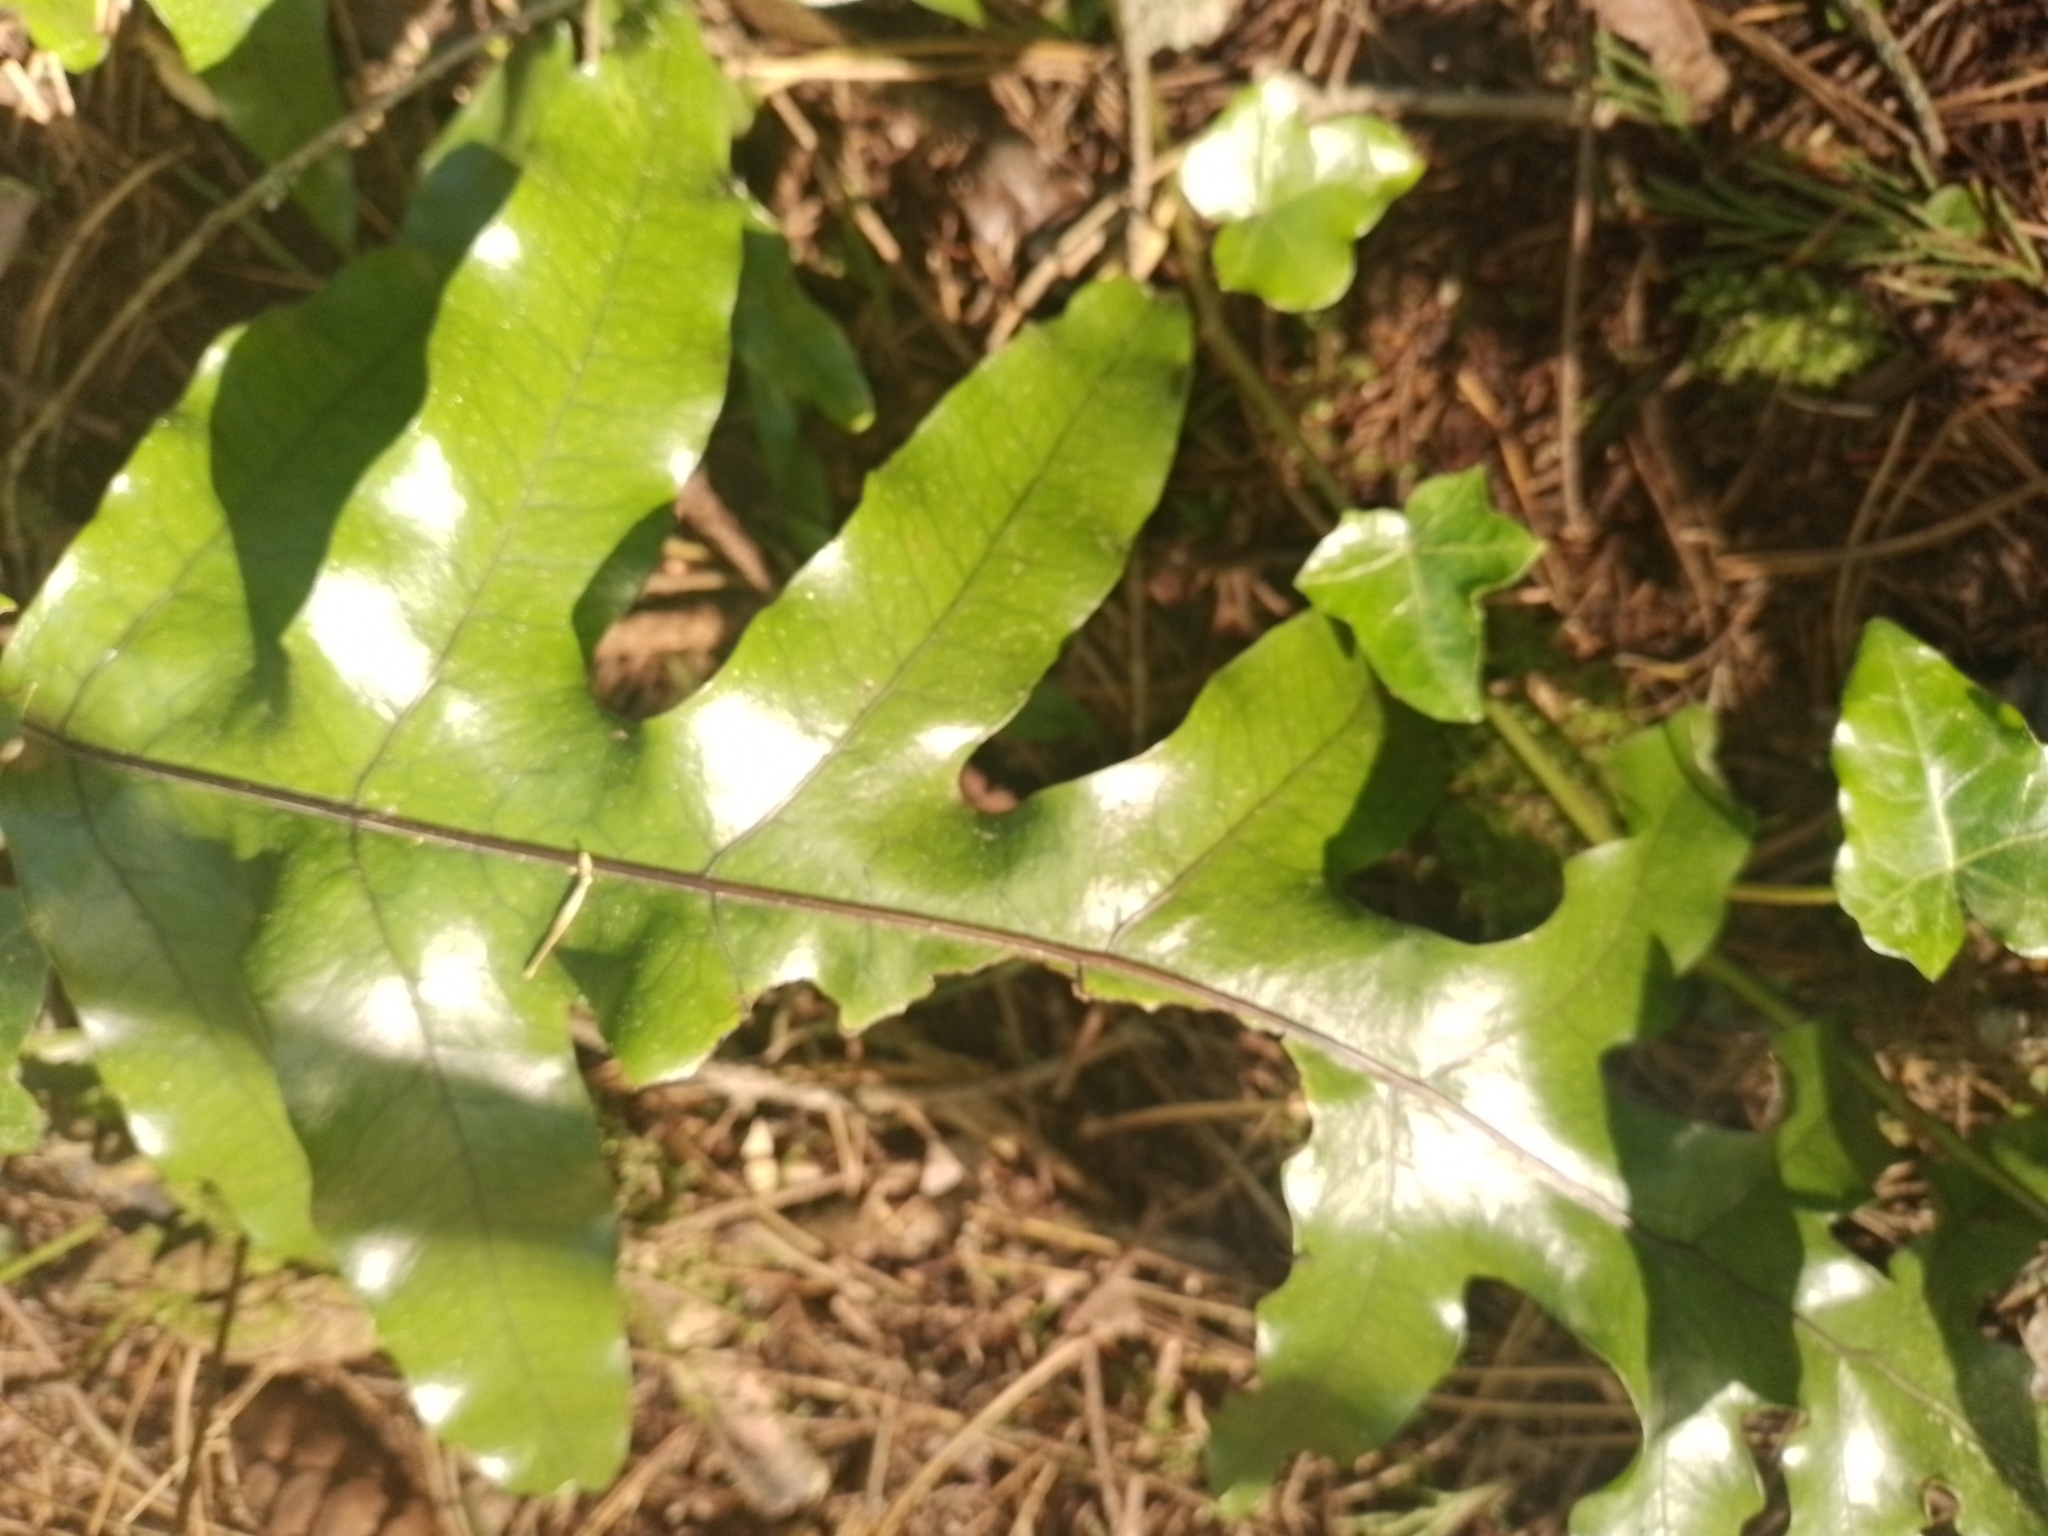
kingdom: Plantae
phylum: Tracheophyta
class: Polypodiopsida
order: Polypodiales
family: Polypodiaceae
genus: Lecanopteris
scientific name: Lecanopteris pustulata
